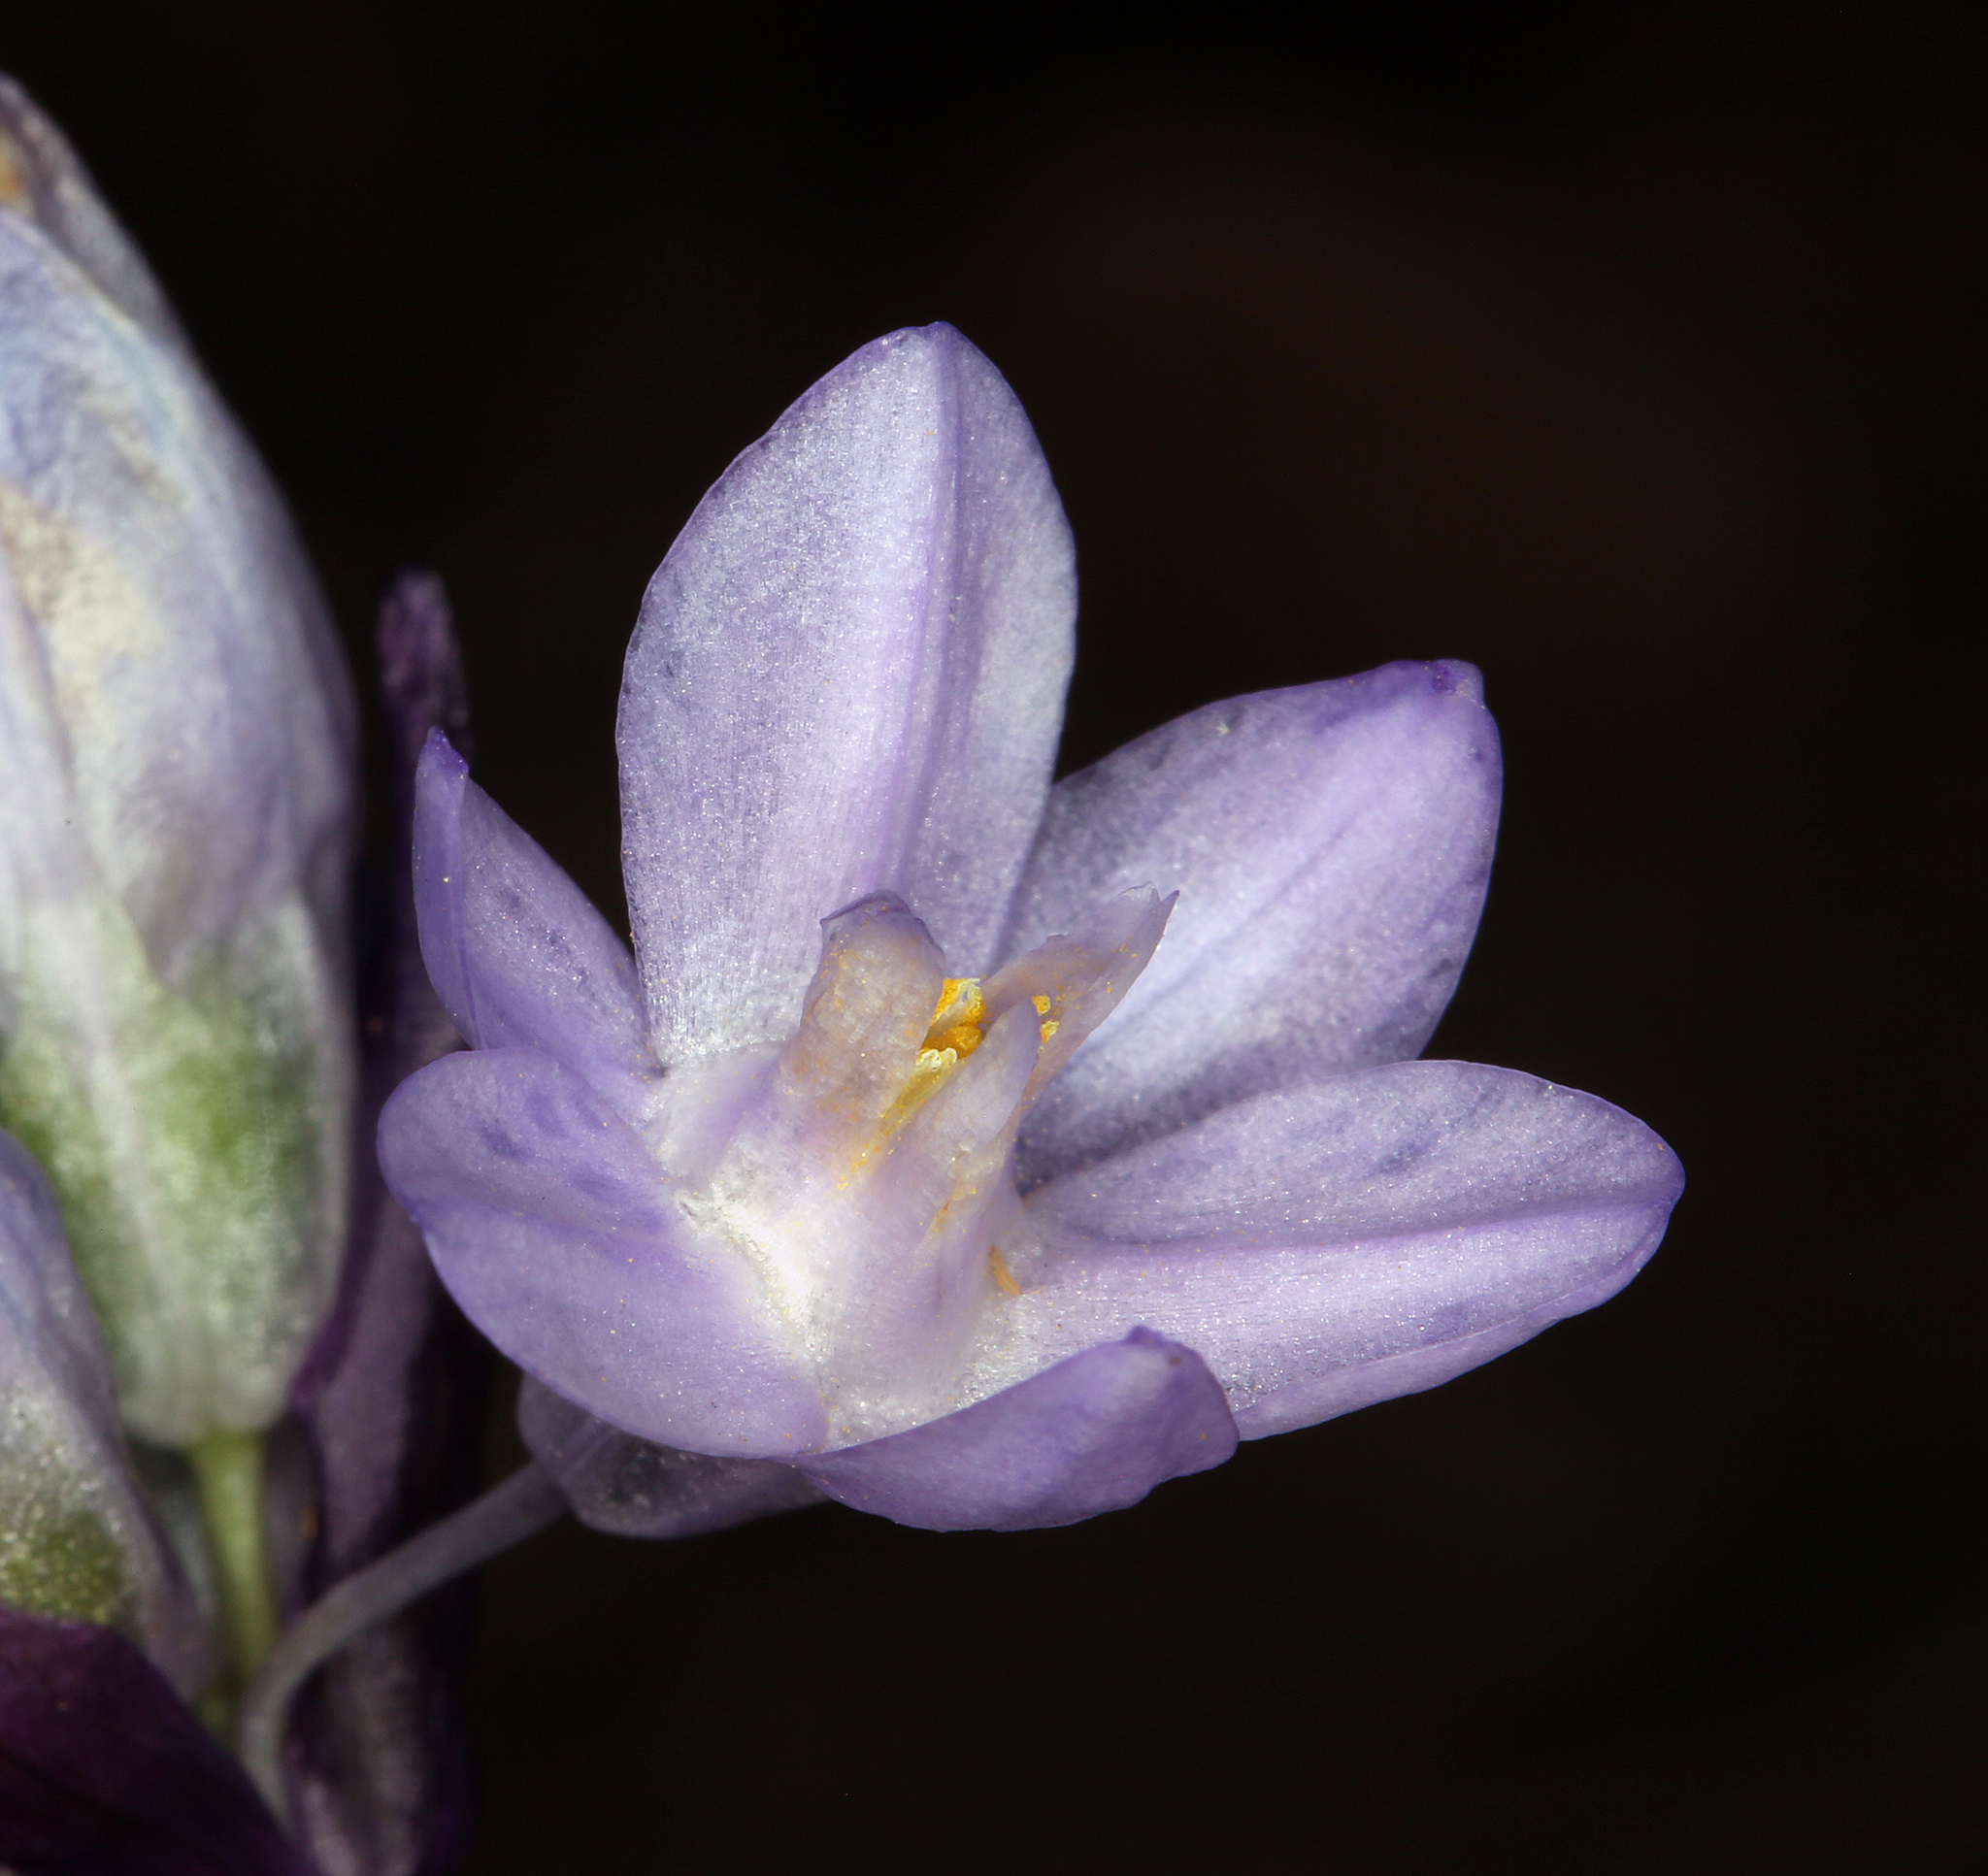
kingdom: Plantae
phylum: Tracheophyta
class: Liliopsida
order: Asparagales
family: Asparagaceae
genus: Dipterostemon
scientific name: Dipterostemon capitatus
